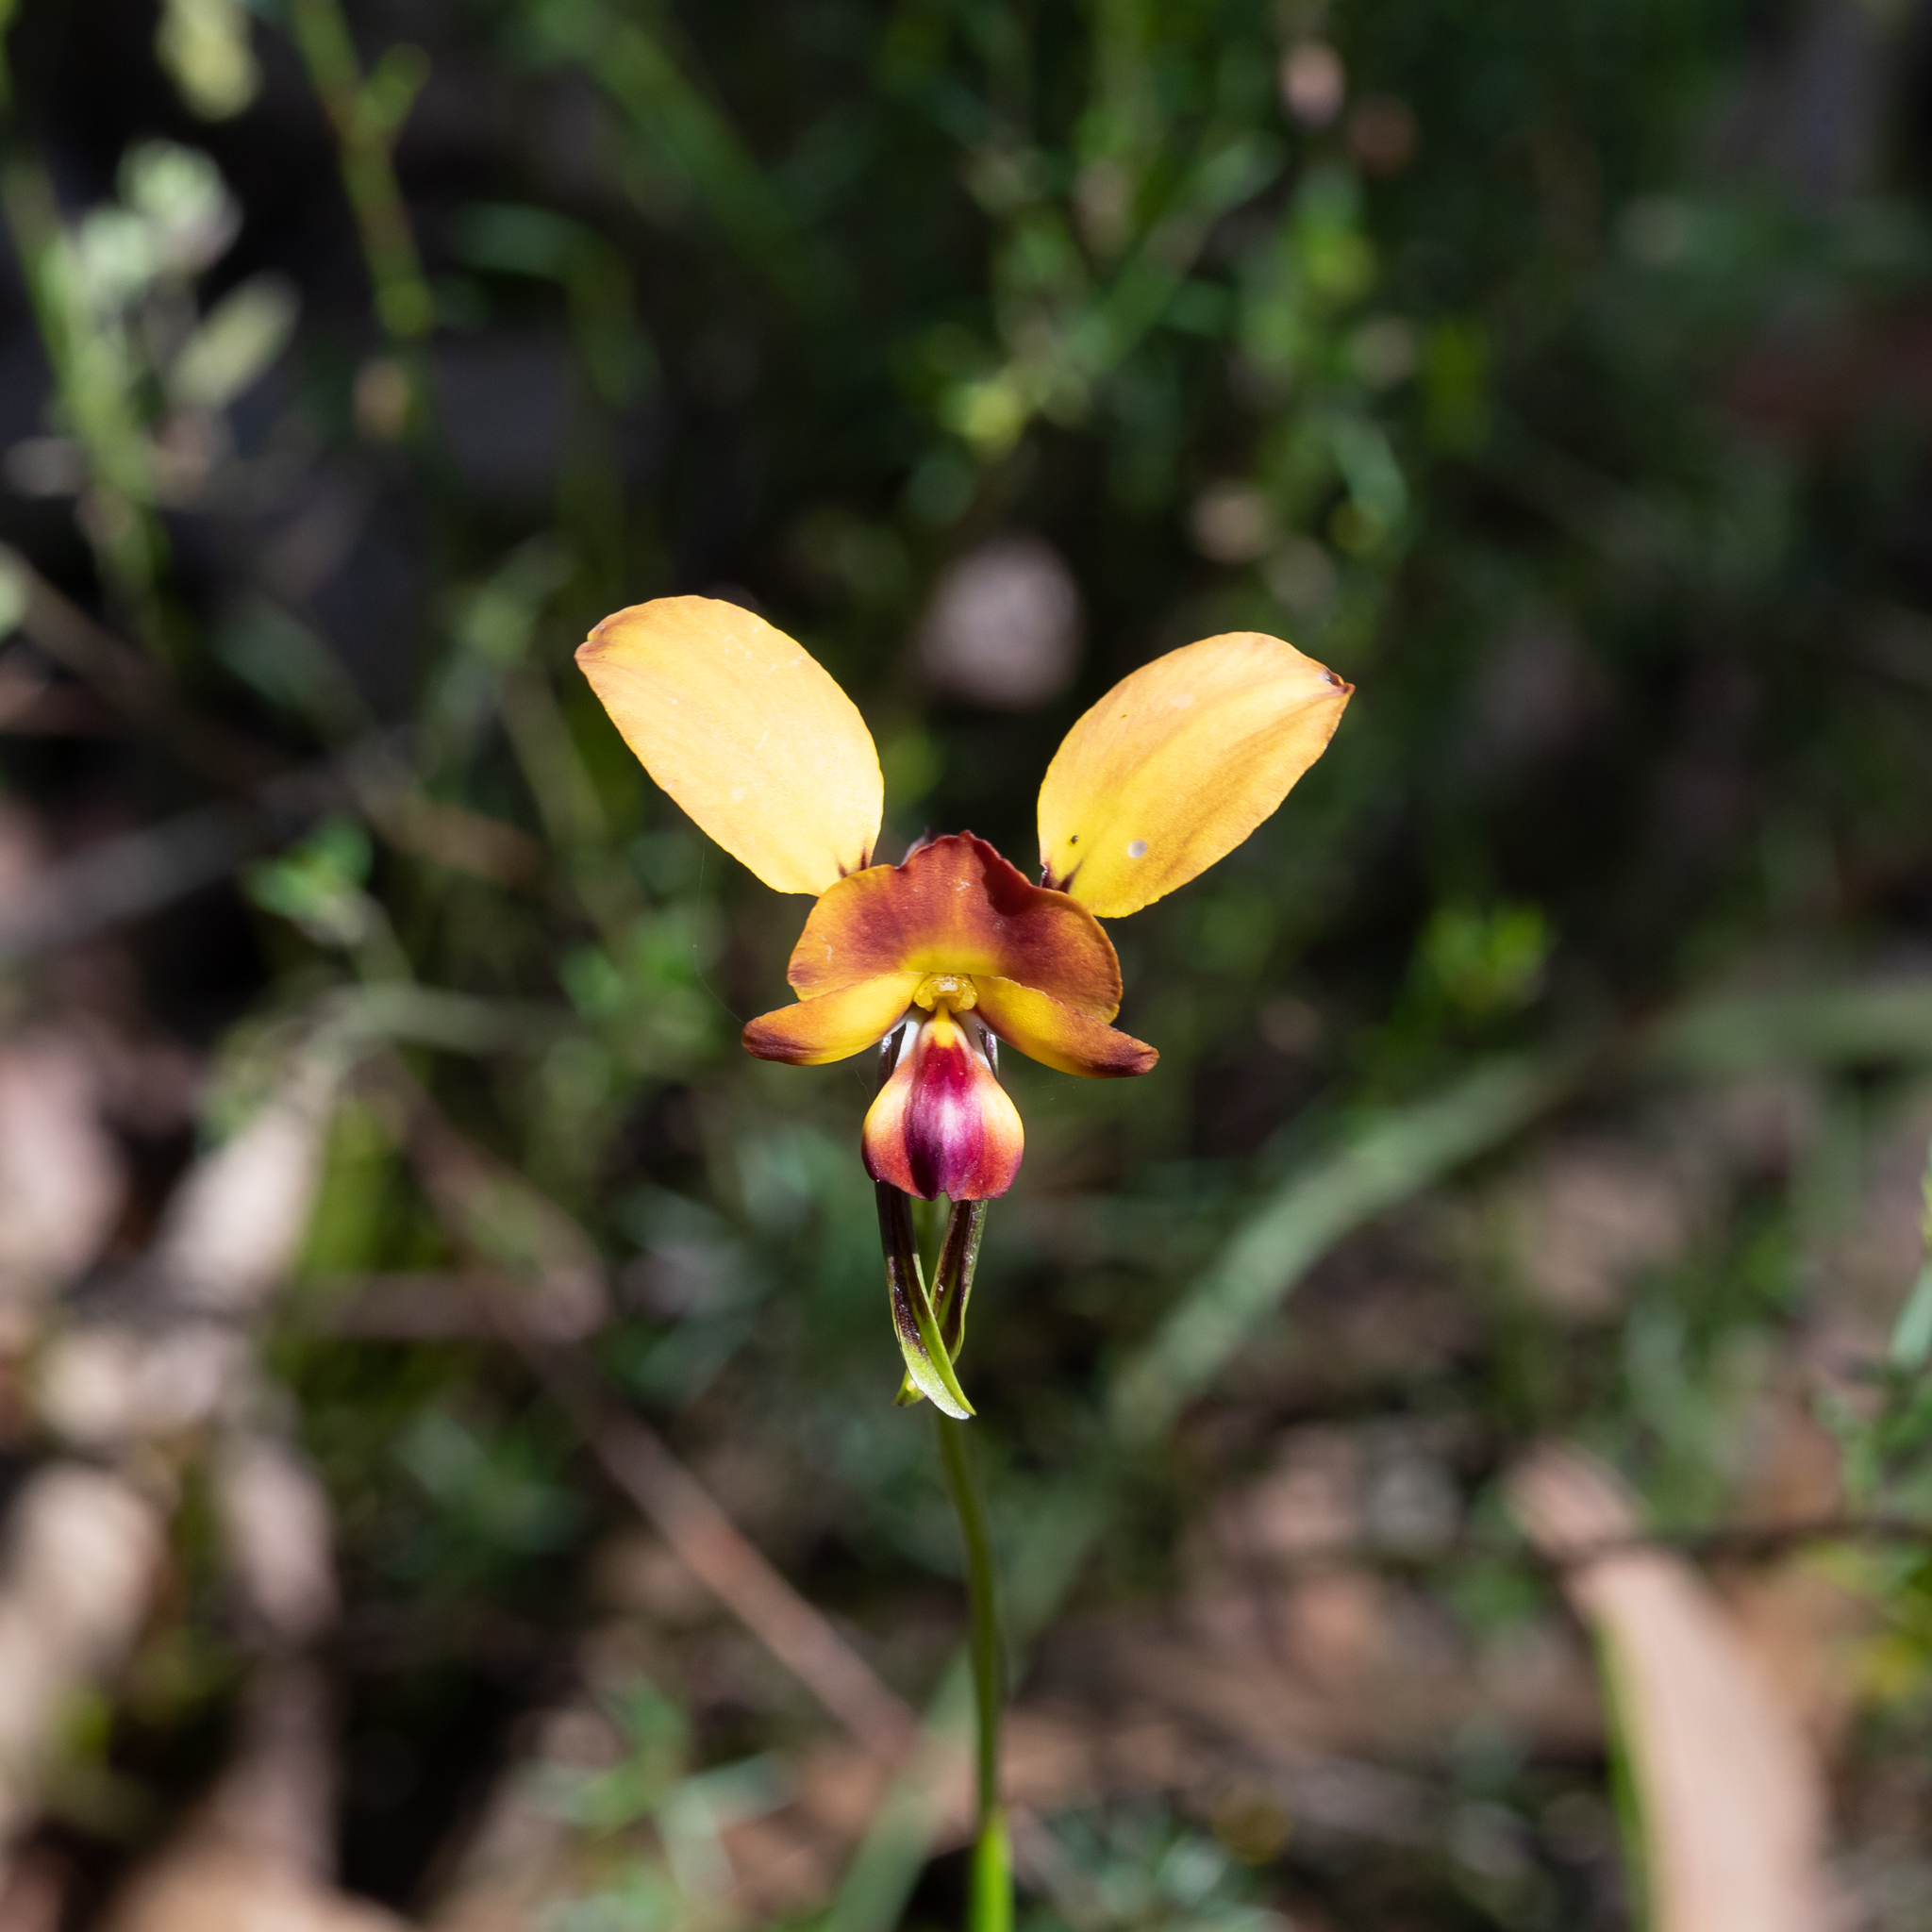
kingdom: Plantae
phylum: Tracheophyta
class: Liliopsida
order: Asparagales
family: Orchidaceae
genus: Diuris
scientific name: Diuris orientis
